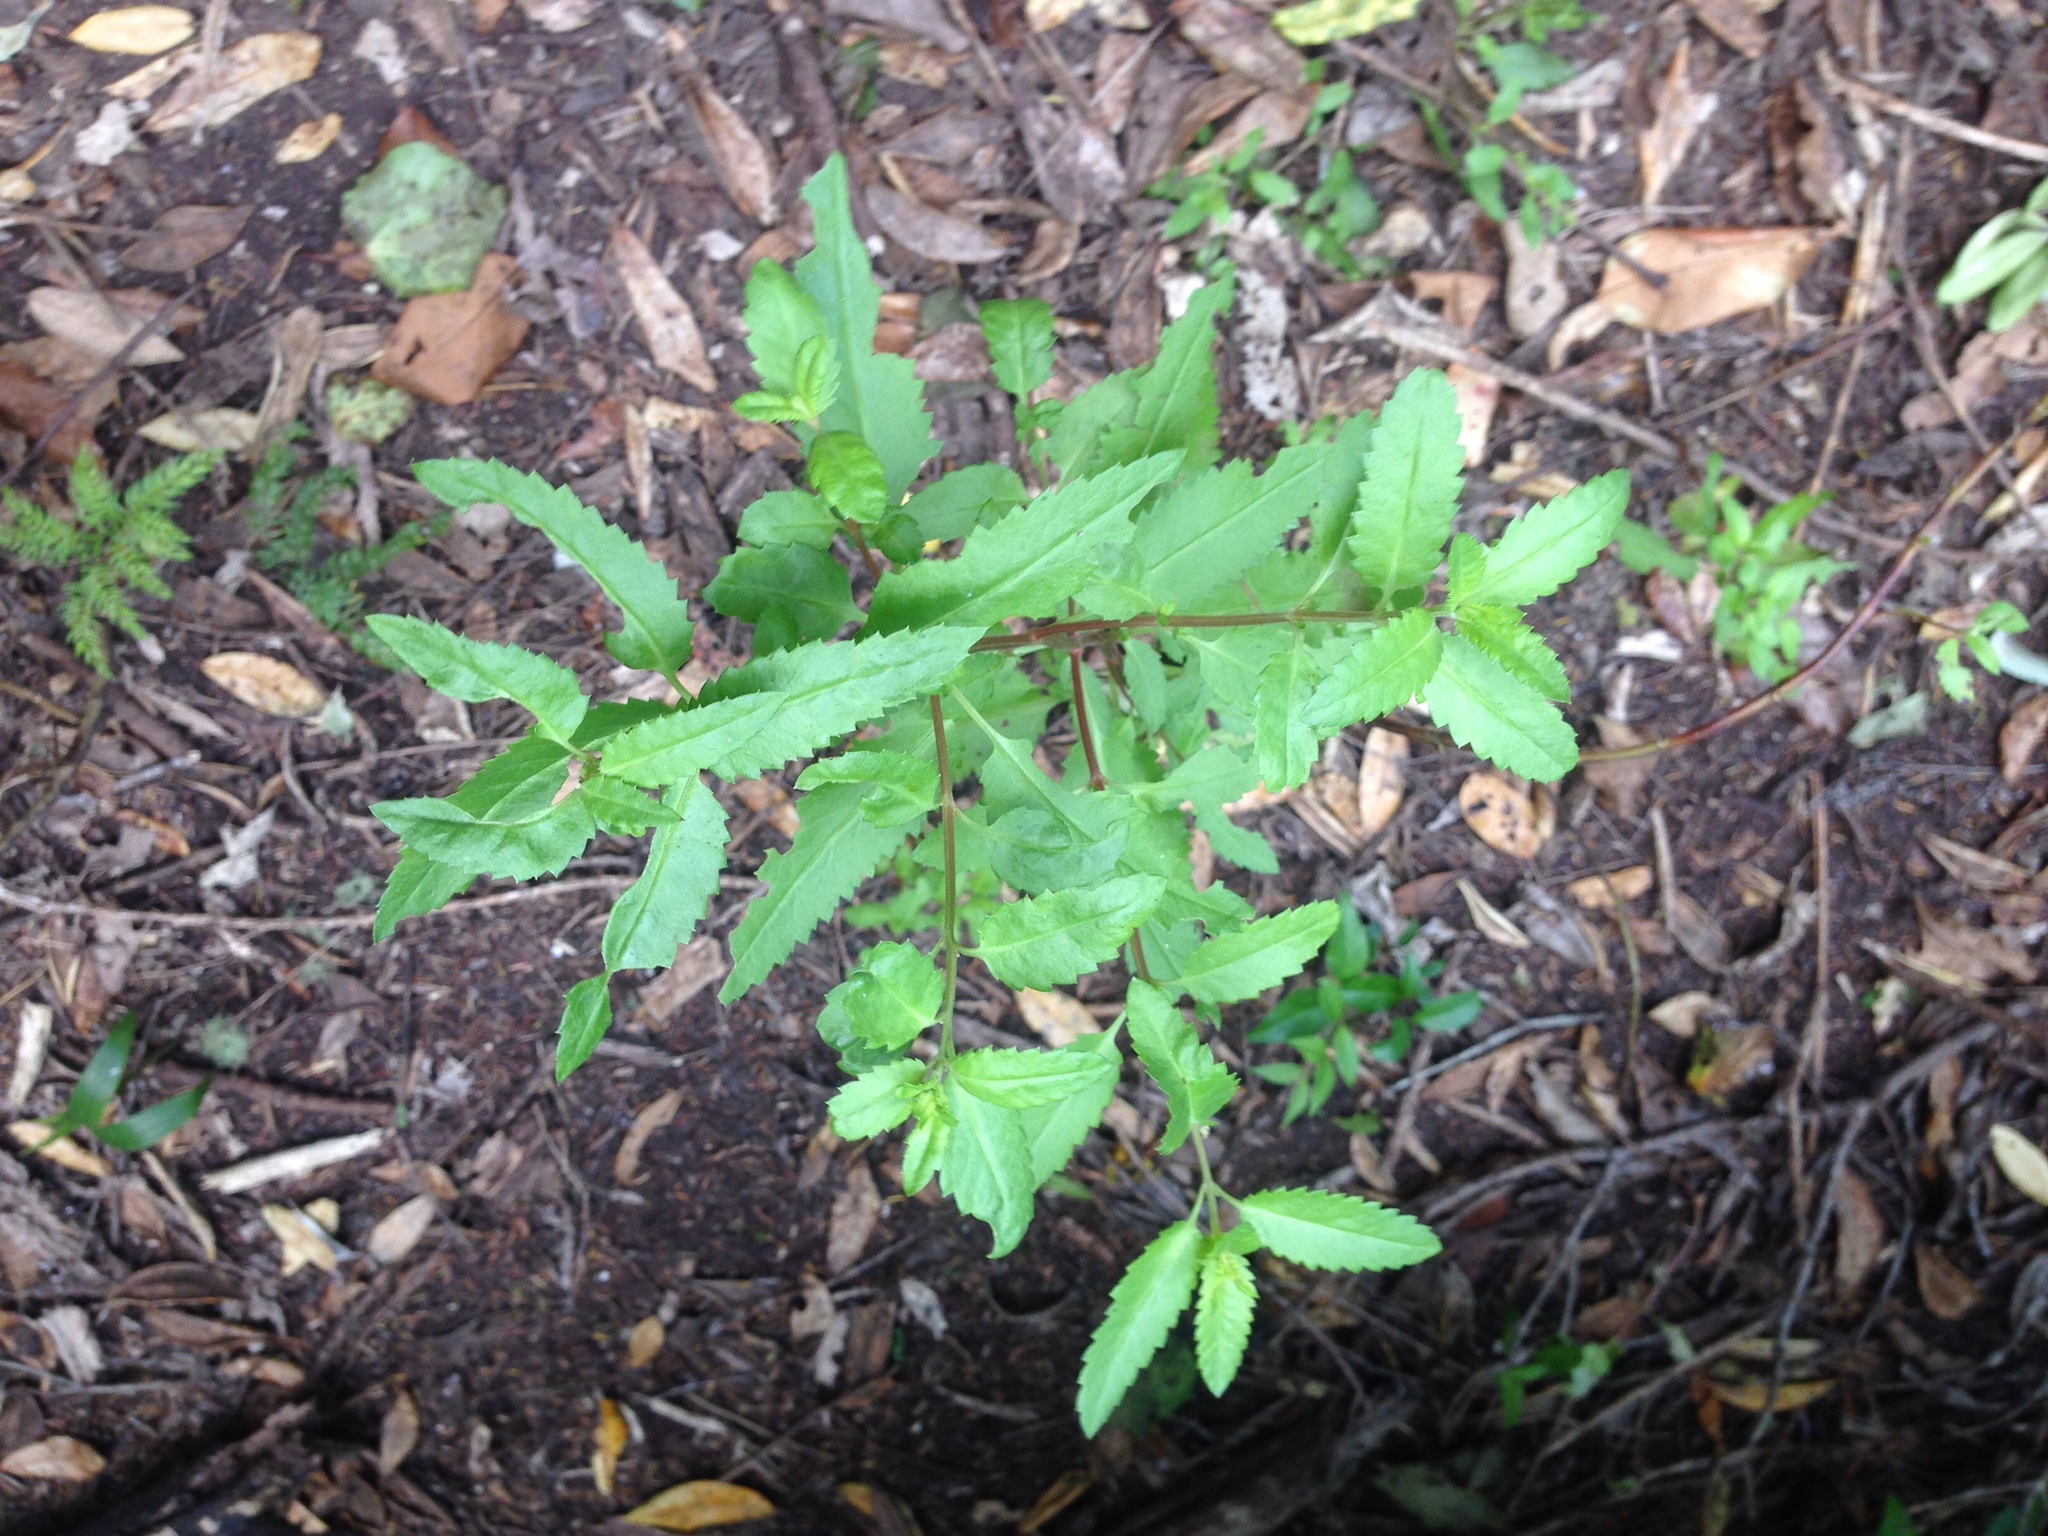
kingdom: Plantae
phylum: Tracheophyta
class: Magnoliopsida
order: Saxifragales
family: Haloragaceae
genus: Haloragis
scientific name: Haloragis erecta
